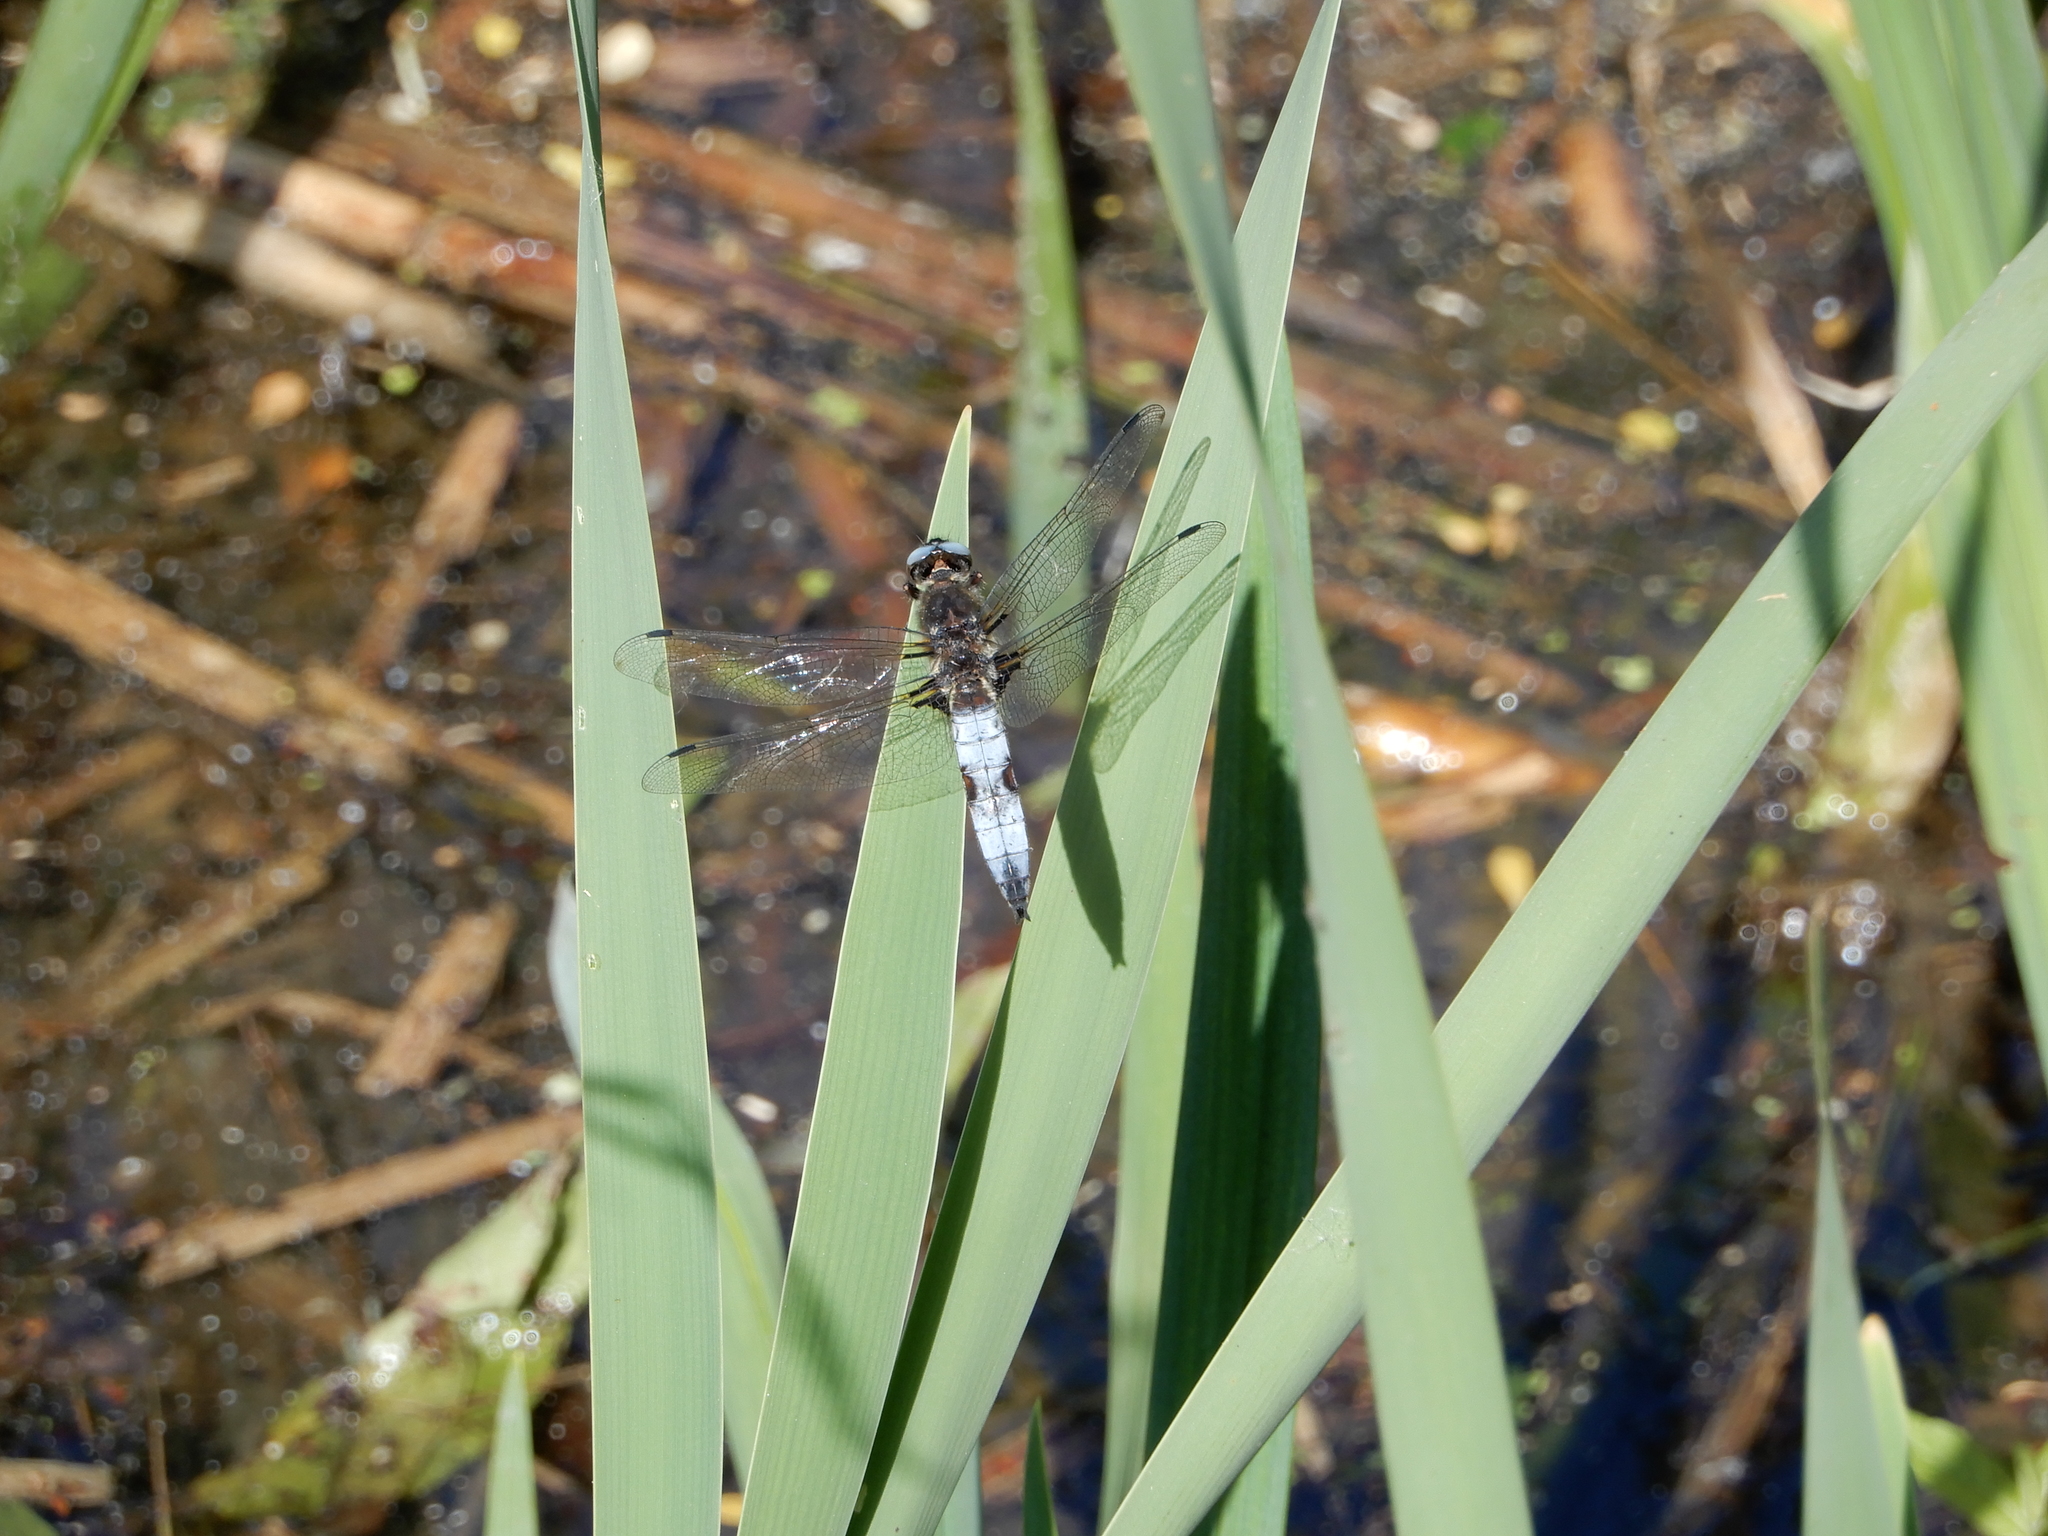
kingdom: Animalia
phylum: Arthropoda
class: Insecta
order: Odonata
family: Libellulidae
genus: Libellula
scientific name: Libellula fulva
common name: Blue chaser
